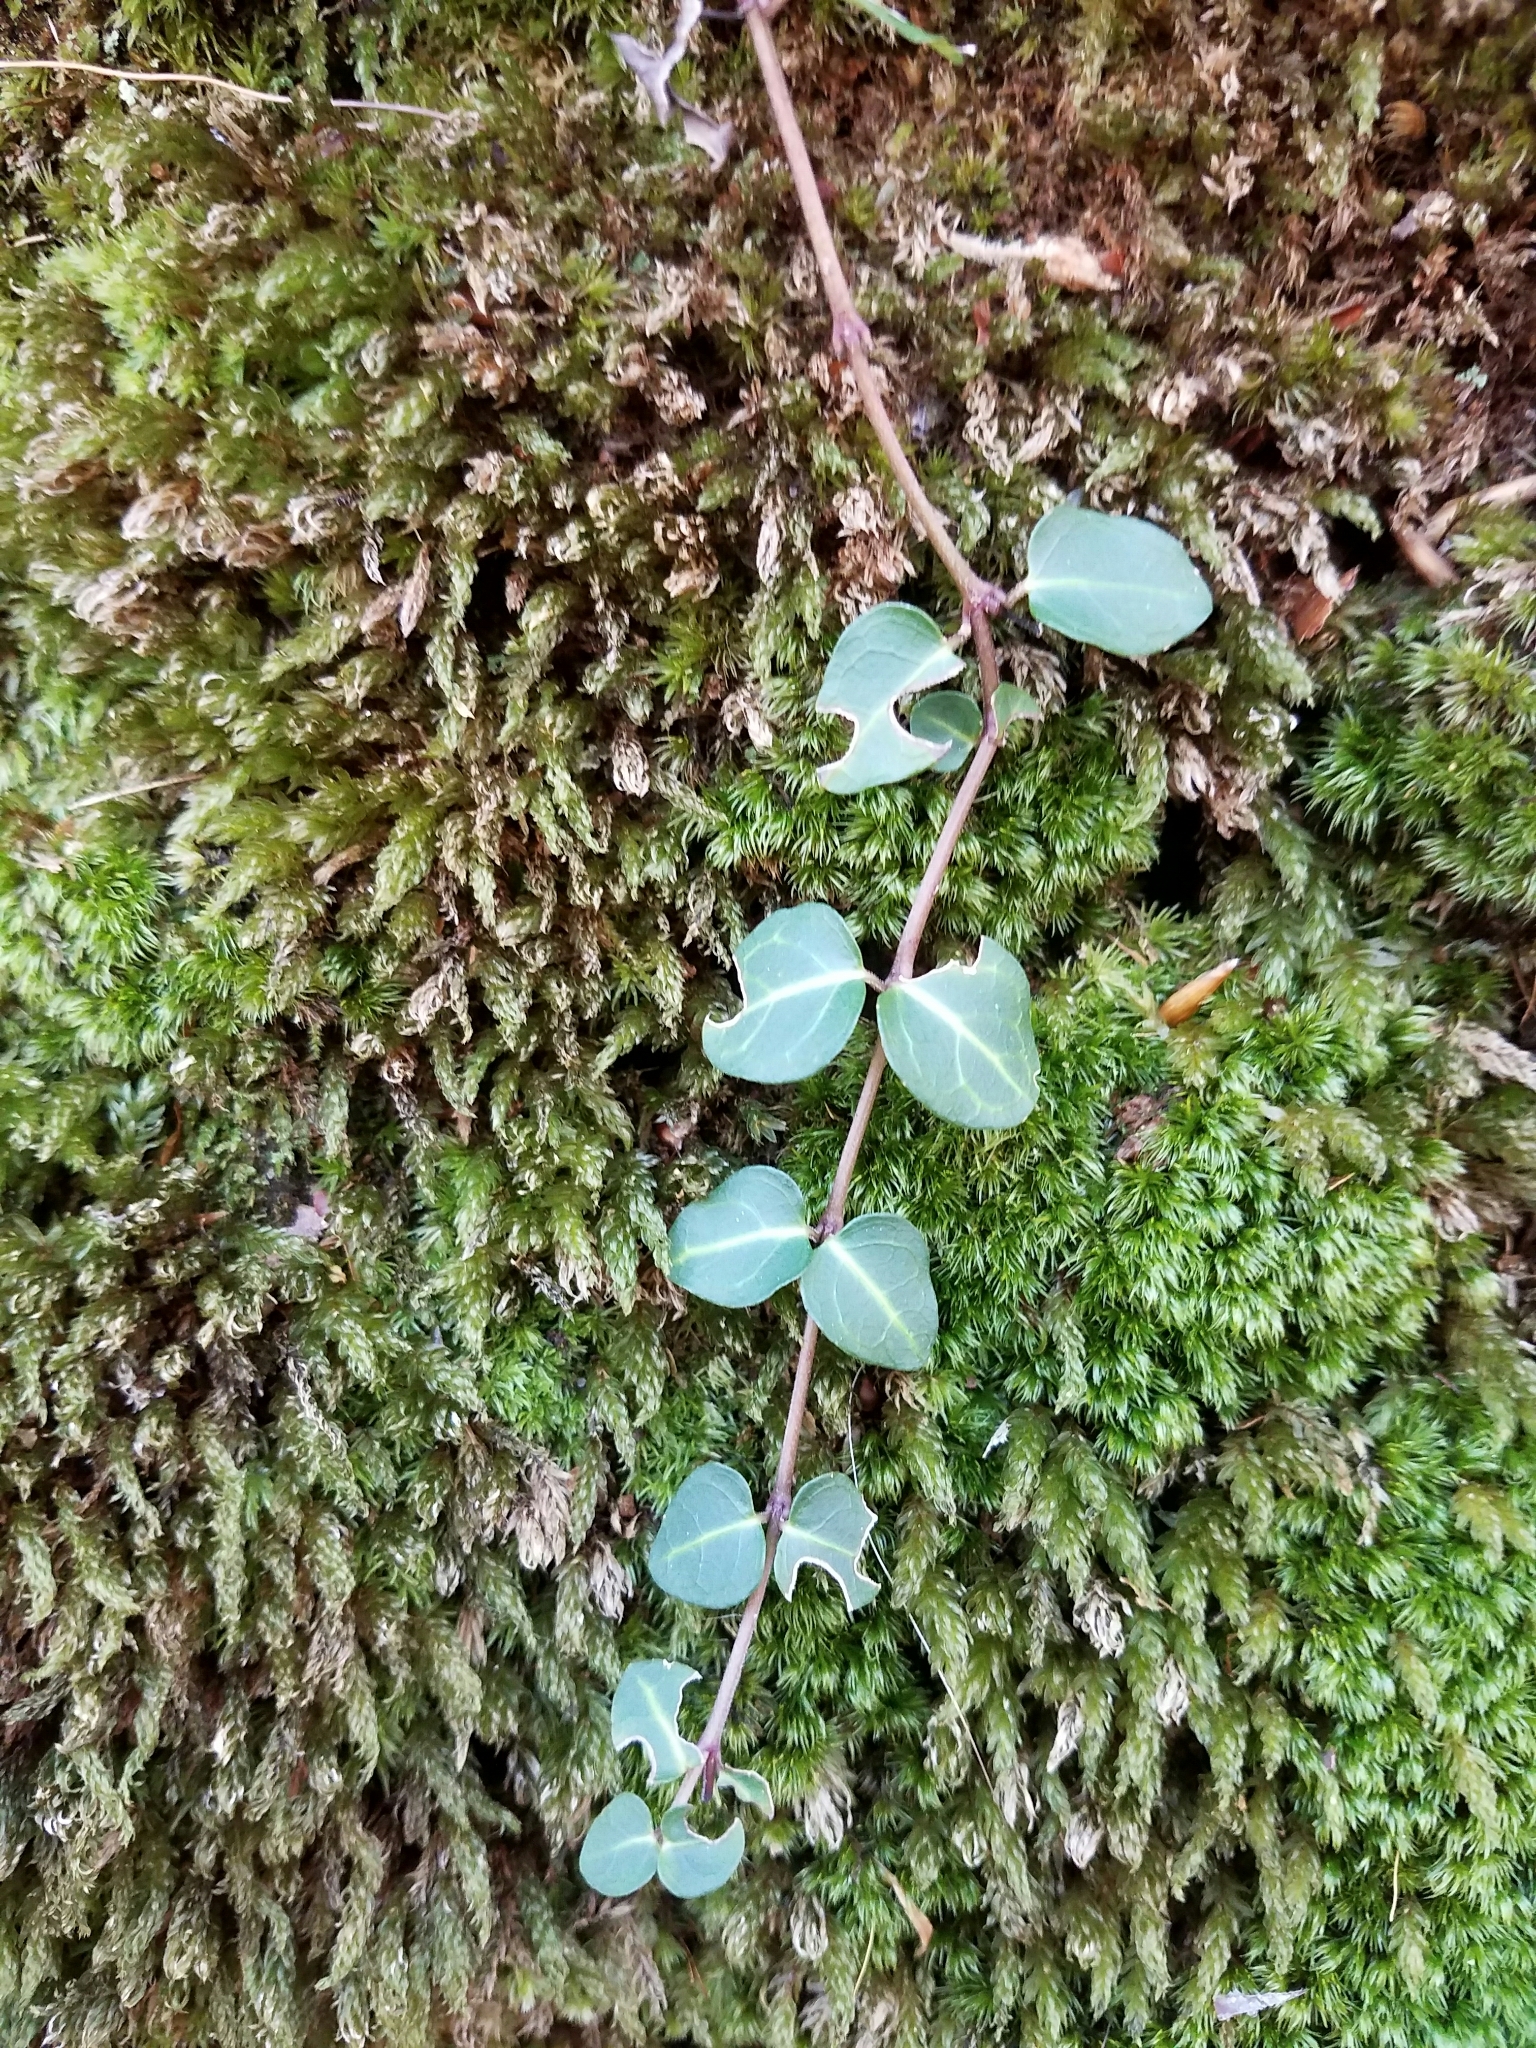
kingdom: Plantae
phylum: Tracheophyta
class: Magnoliopsida
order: Gentianales
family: Rubiaceae
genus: Mitchella
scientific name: Mitchella repens
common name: Partridge-berry
